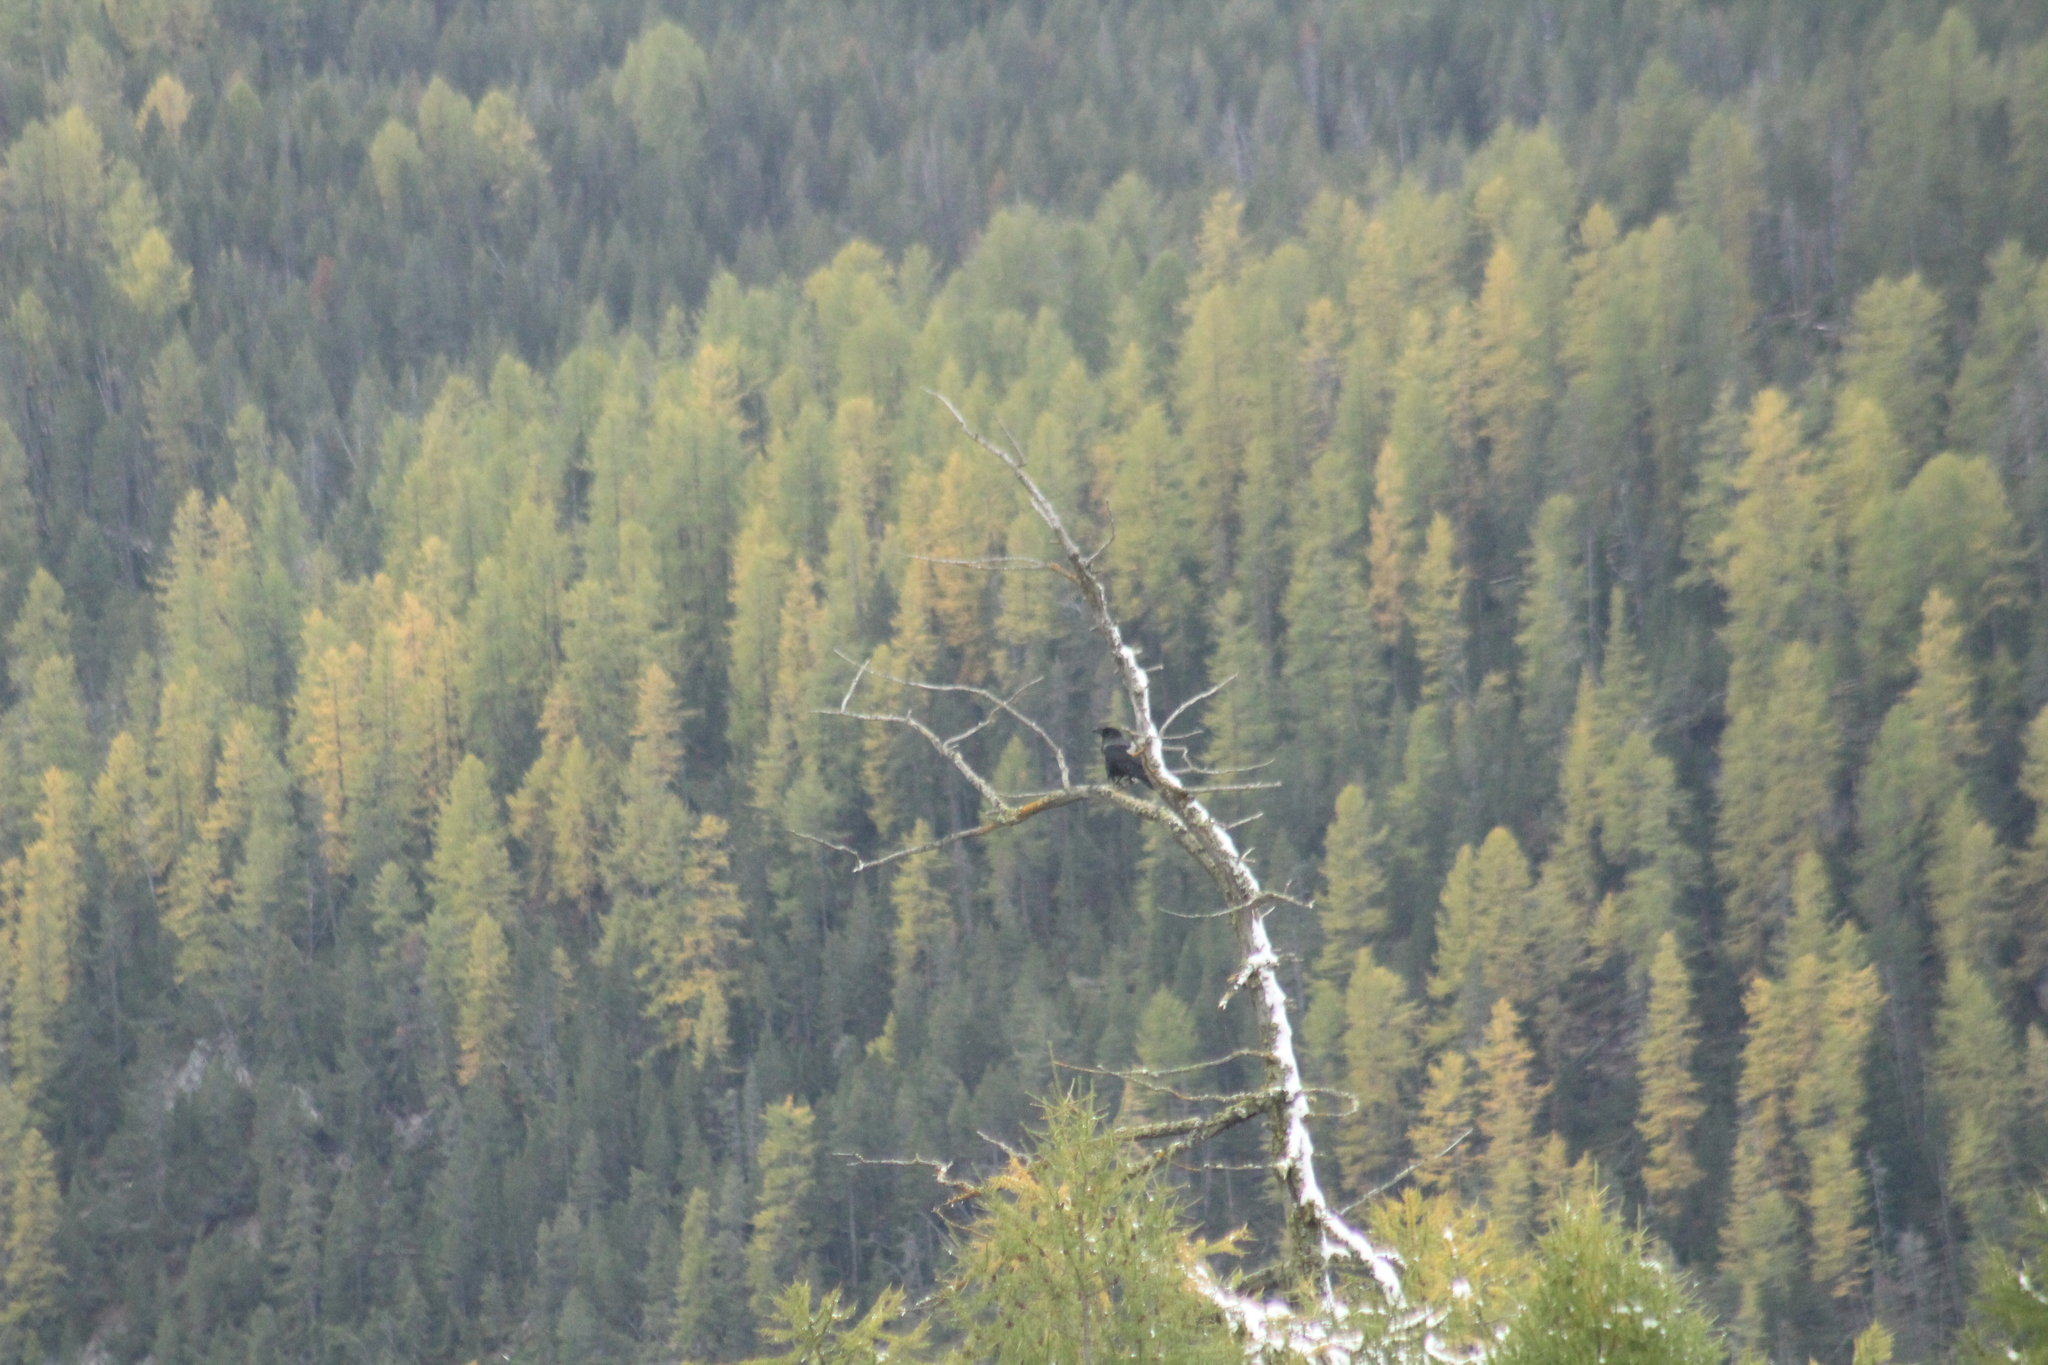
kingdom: Animalia
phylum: Chordata
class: Aves
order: Passeriformes
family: Corvidae
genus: Corvus
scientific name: Corvus corone
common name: Carrion crow
